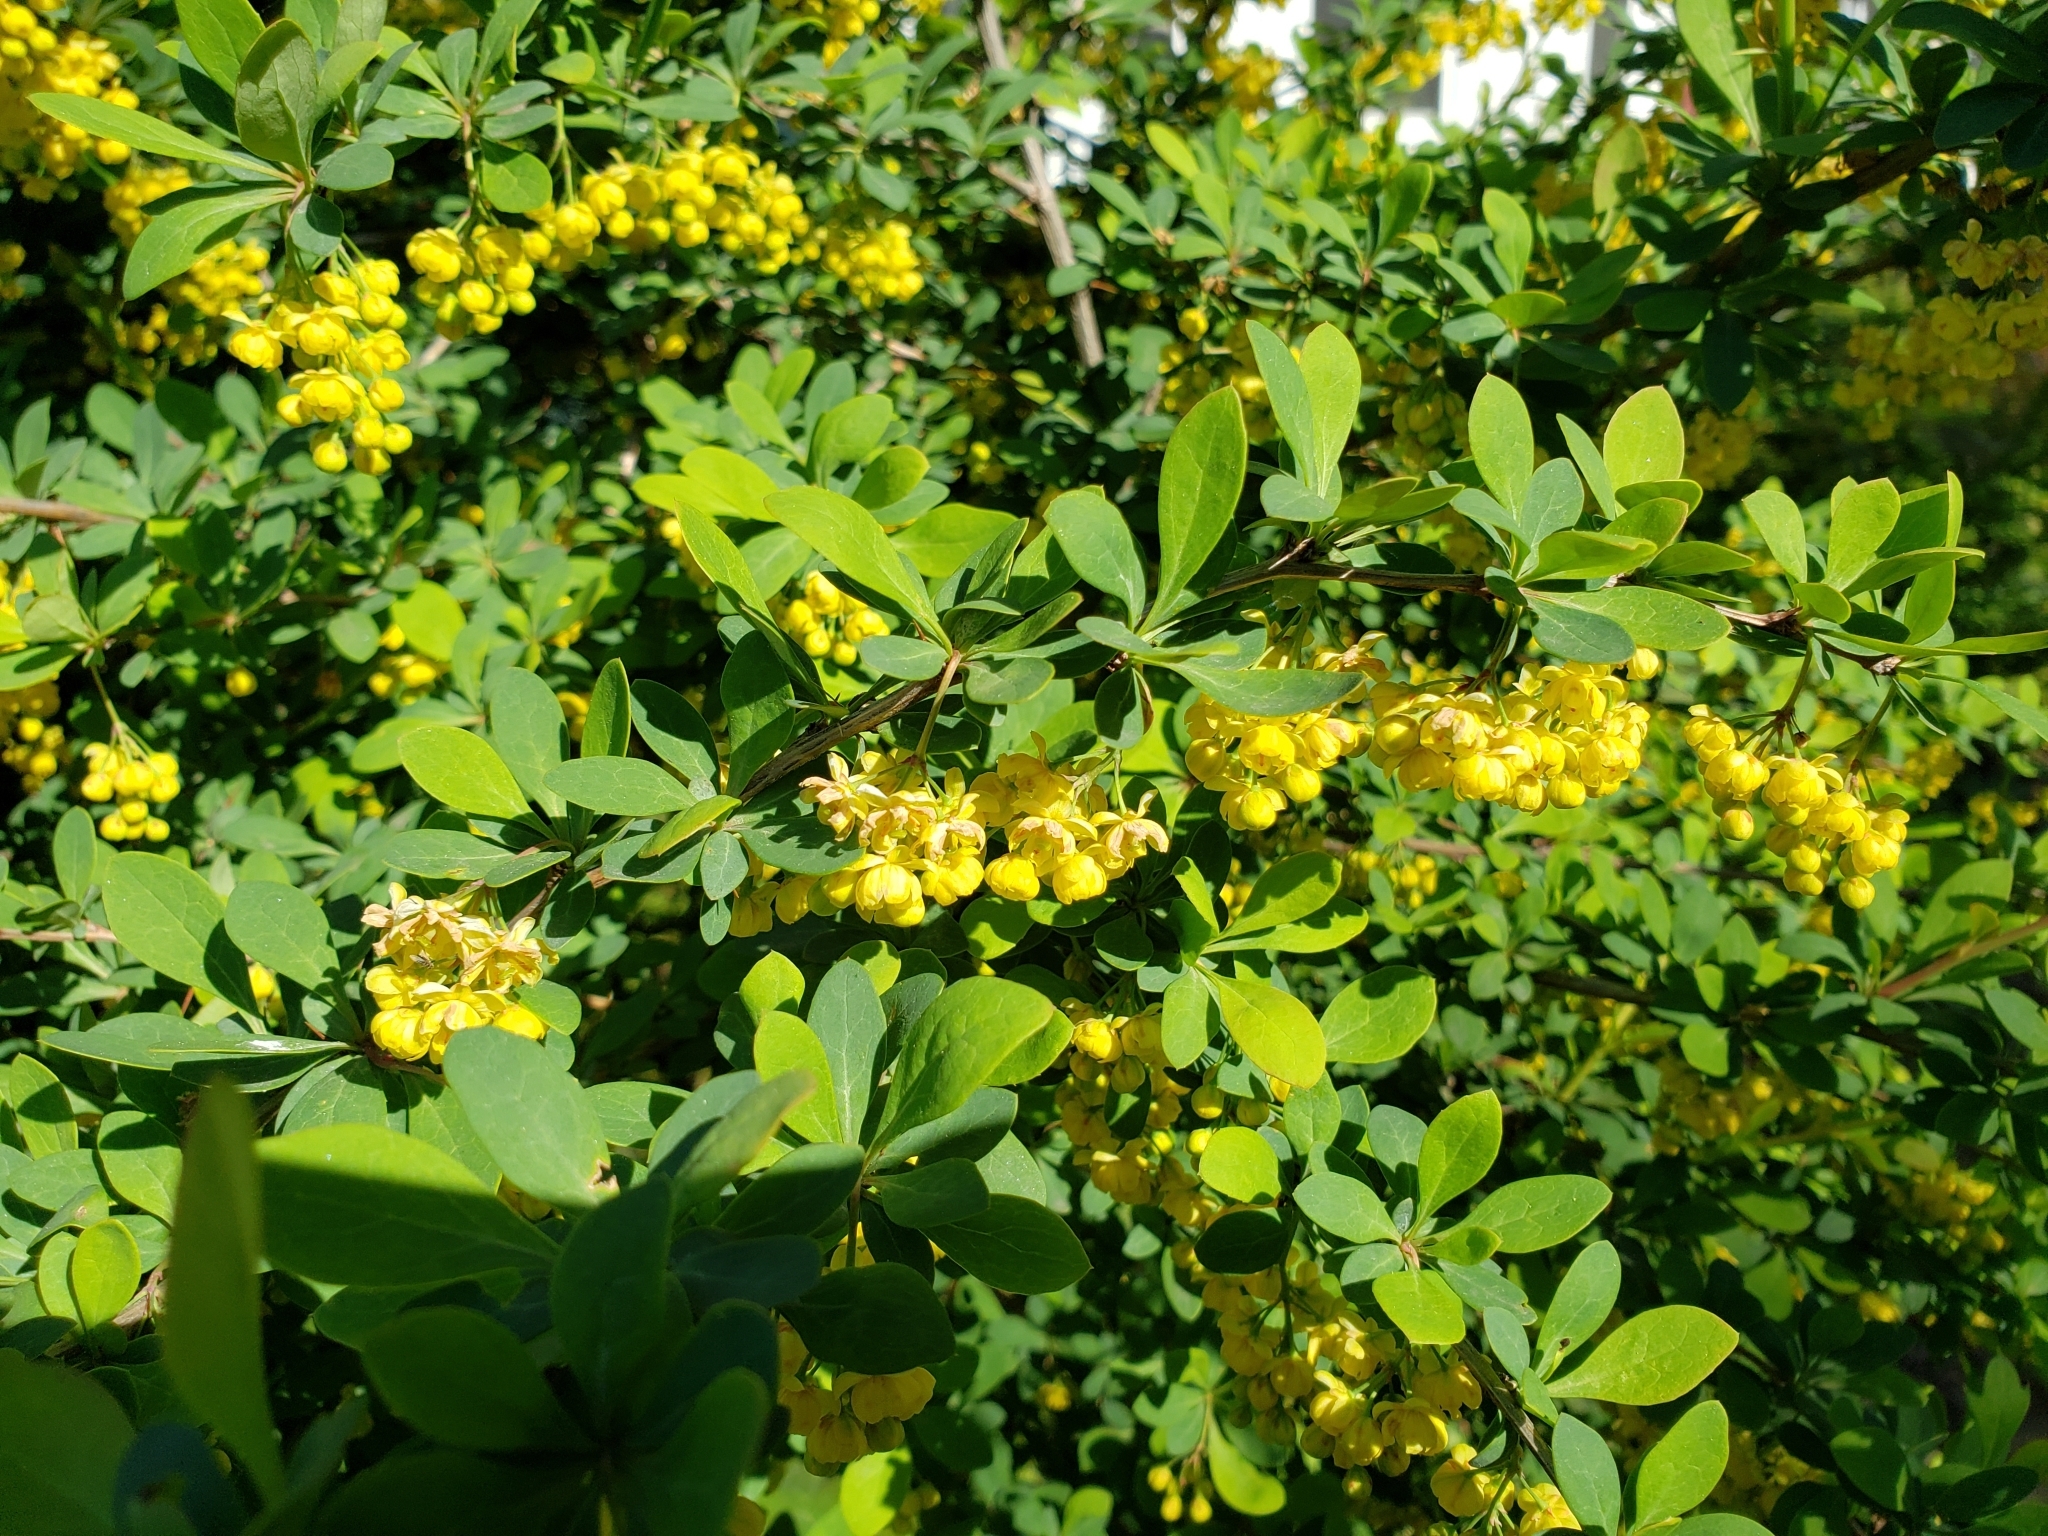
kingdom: Plantae
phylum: Tracheophyta
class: Magnoliopsida
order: Ranunculales
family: Berberidaceae
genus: Berberis
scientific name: Berberis ottawensis
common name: Ottawa barberry
